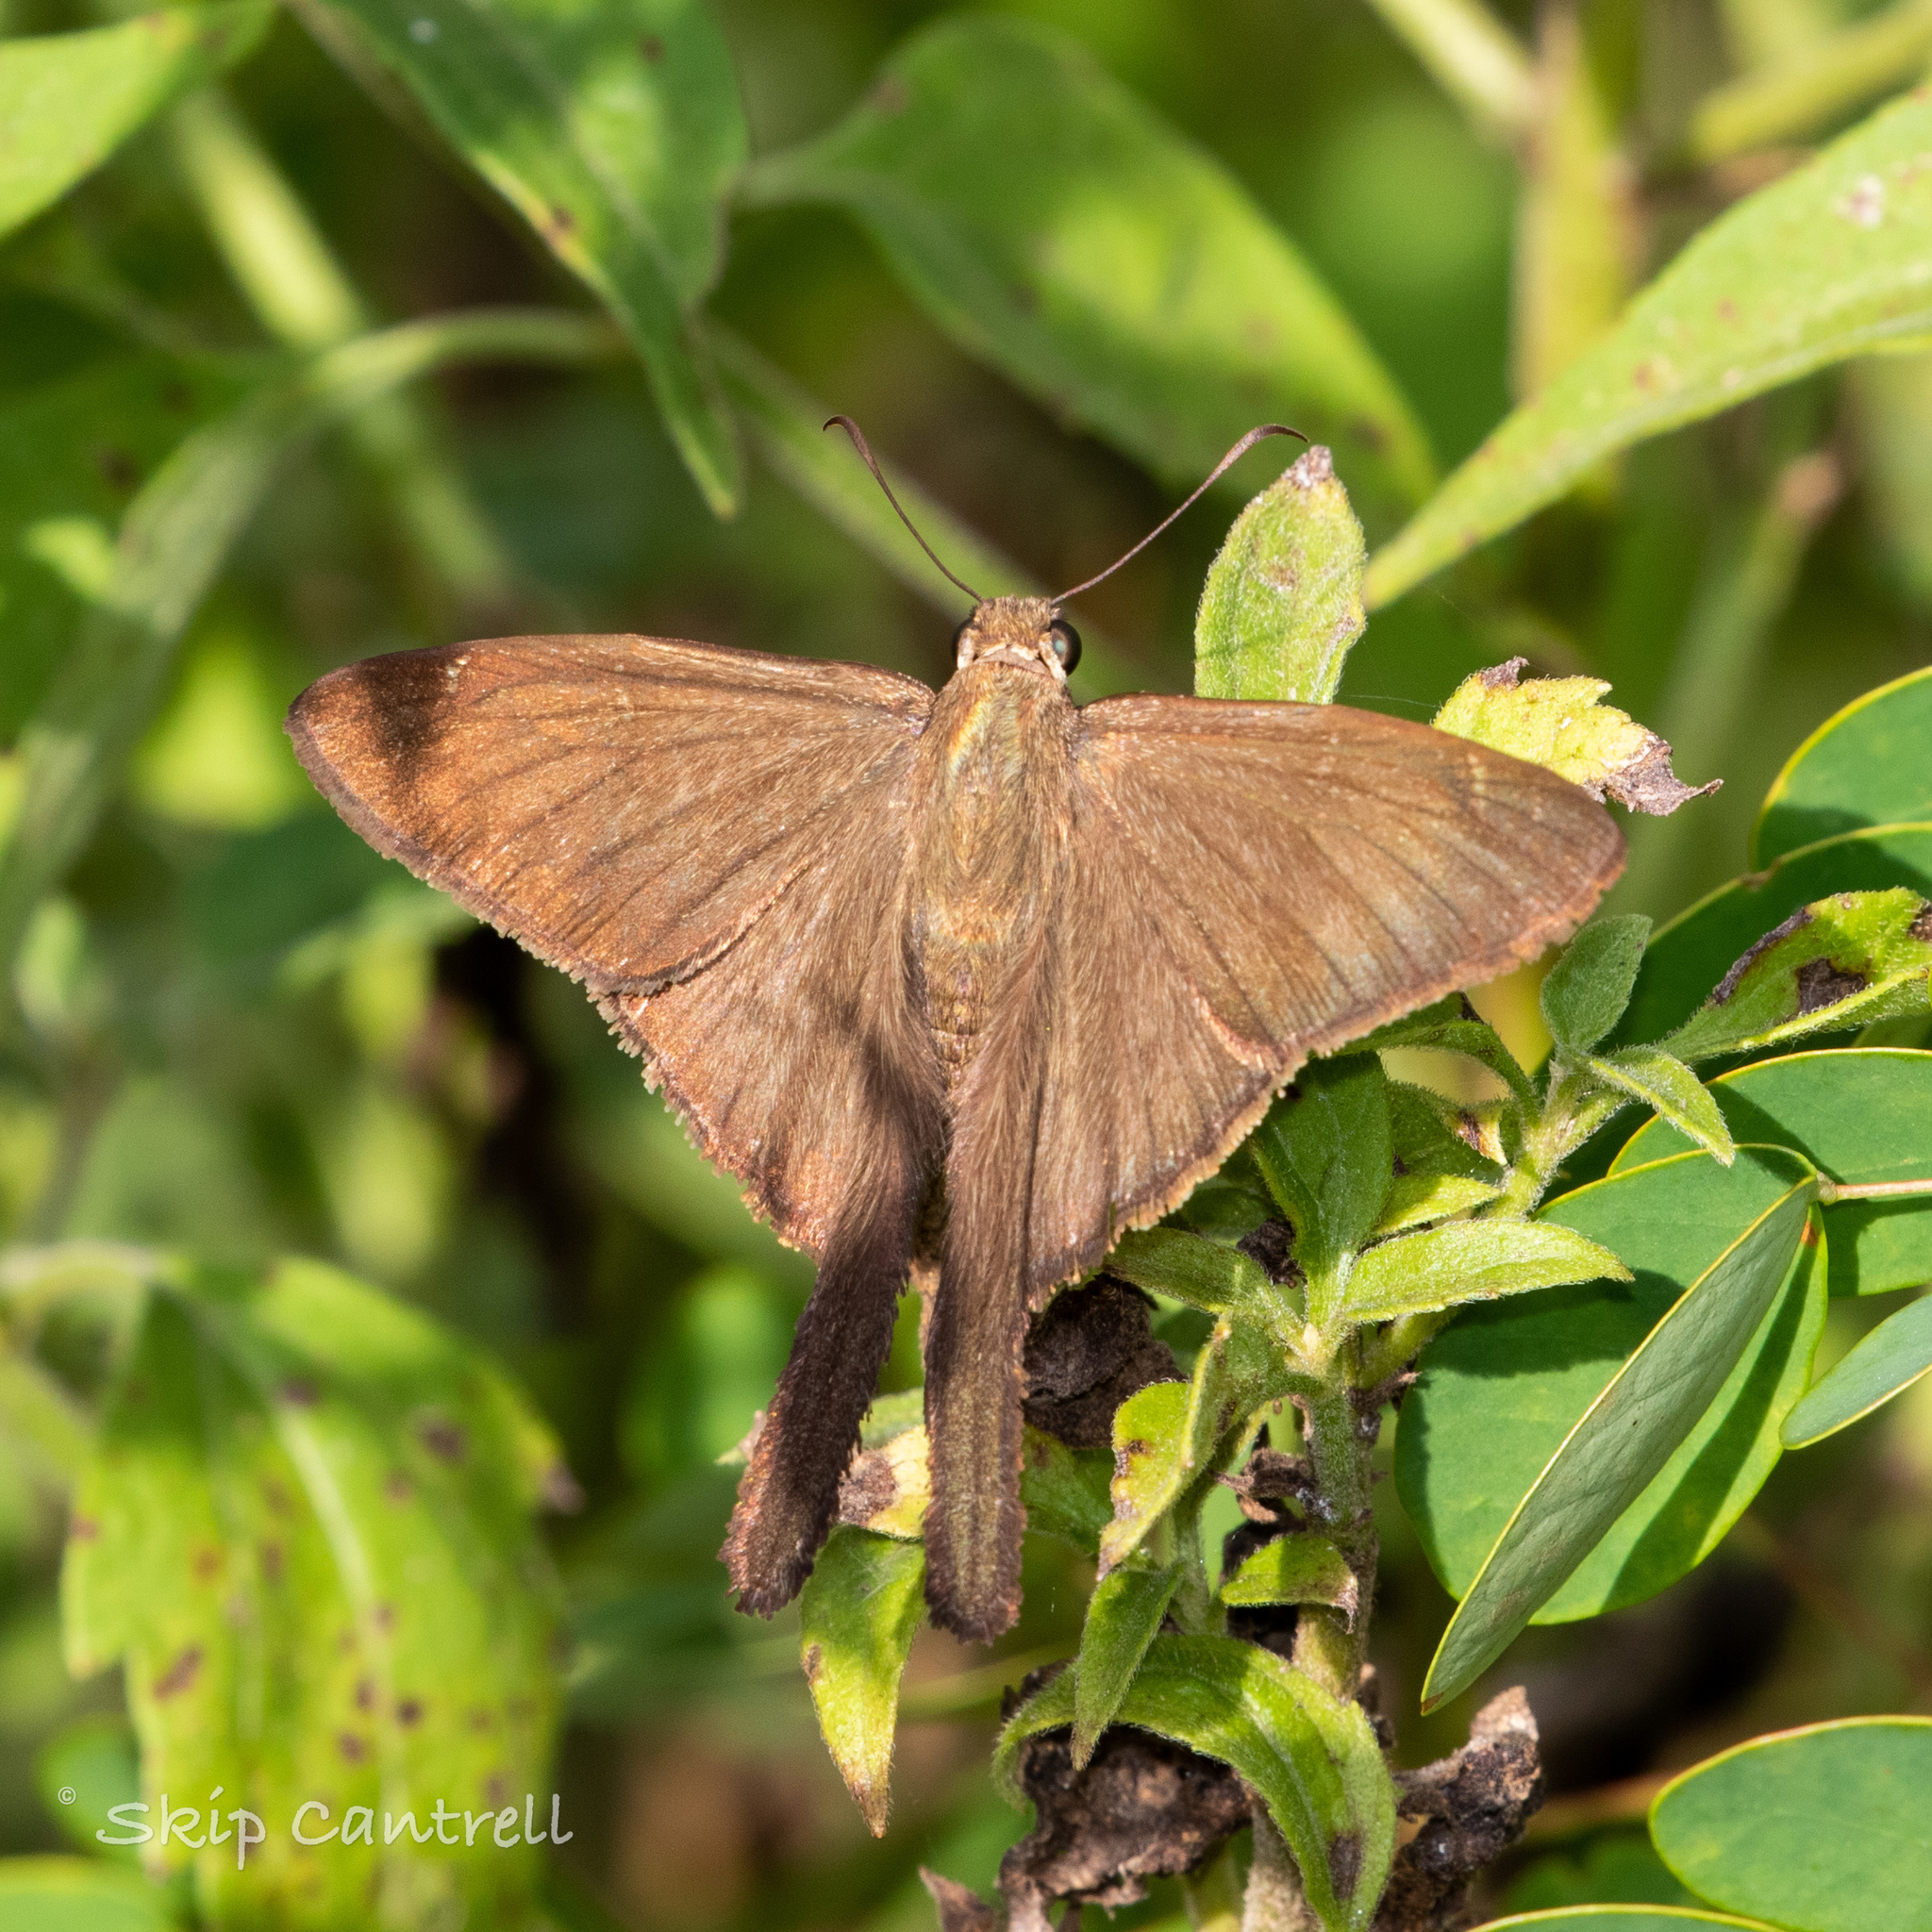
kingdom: Animalia
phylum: Arthropoda
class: Insecta
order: Lepidoptera
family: Hesperiidae
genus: Urbanus
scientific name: Urbanus procne
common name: Brown longtail
